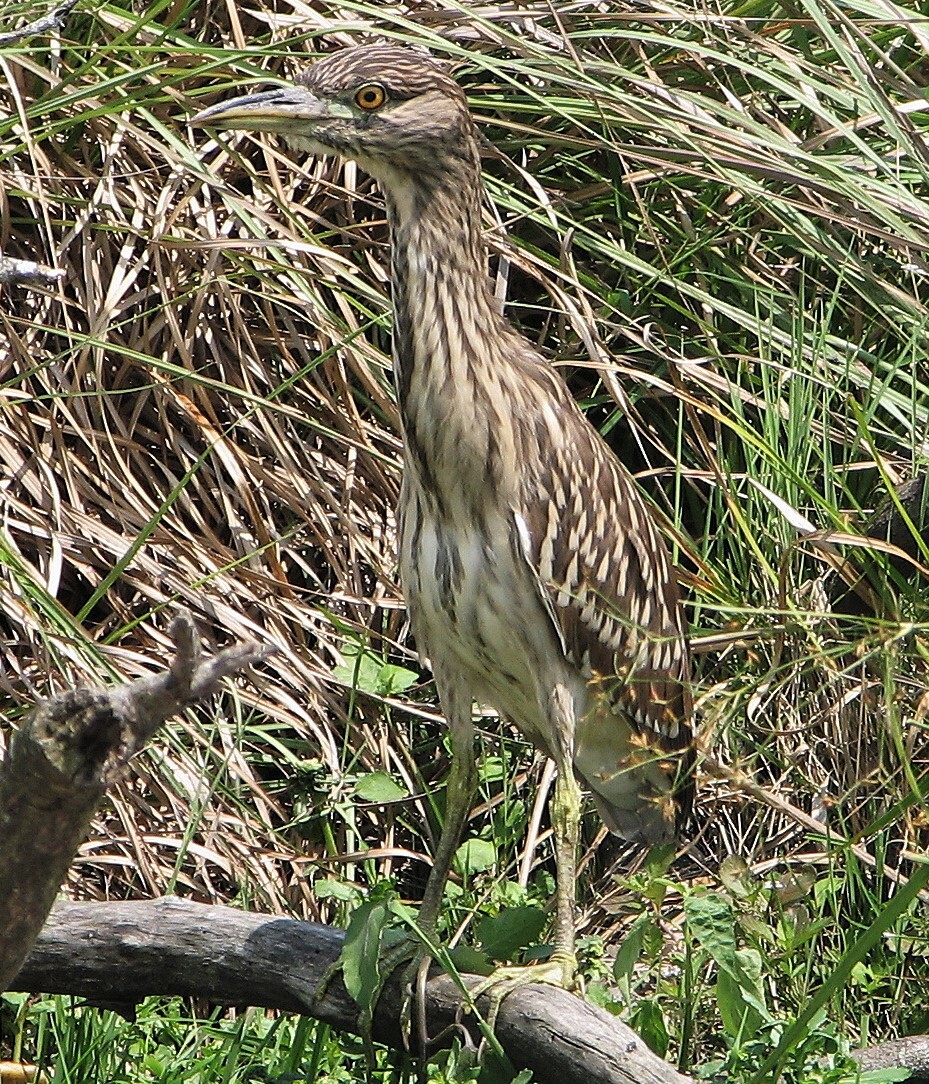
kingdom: Animalia
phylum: Chordata
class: Aves
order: Pelecaniformes
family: Ardeidae
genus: Nycticorax
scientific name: Nycticorax nycticorax
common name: Black-crowned night heron
